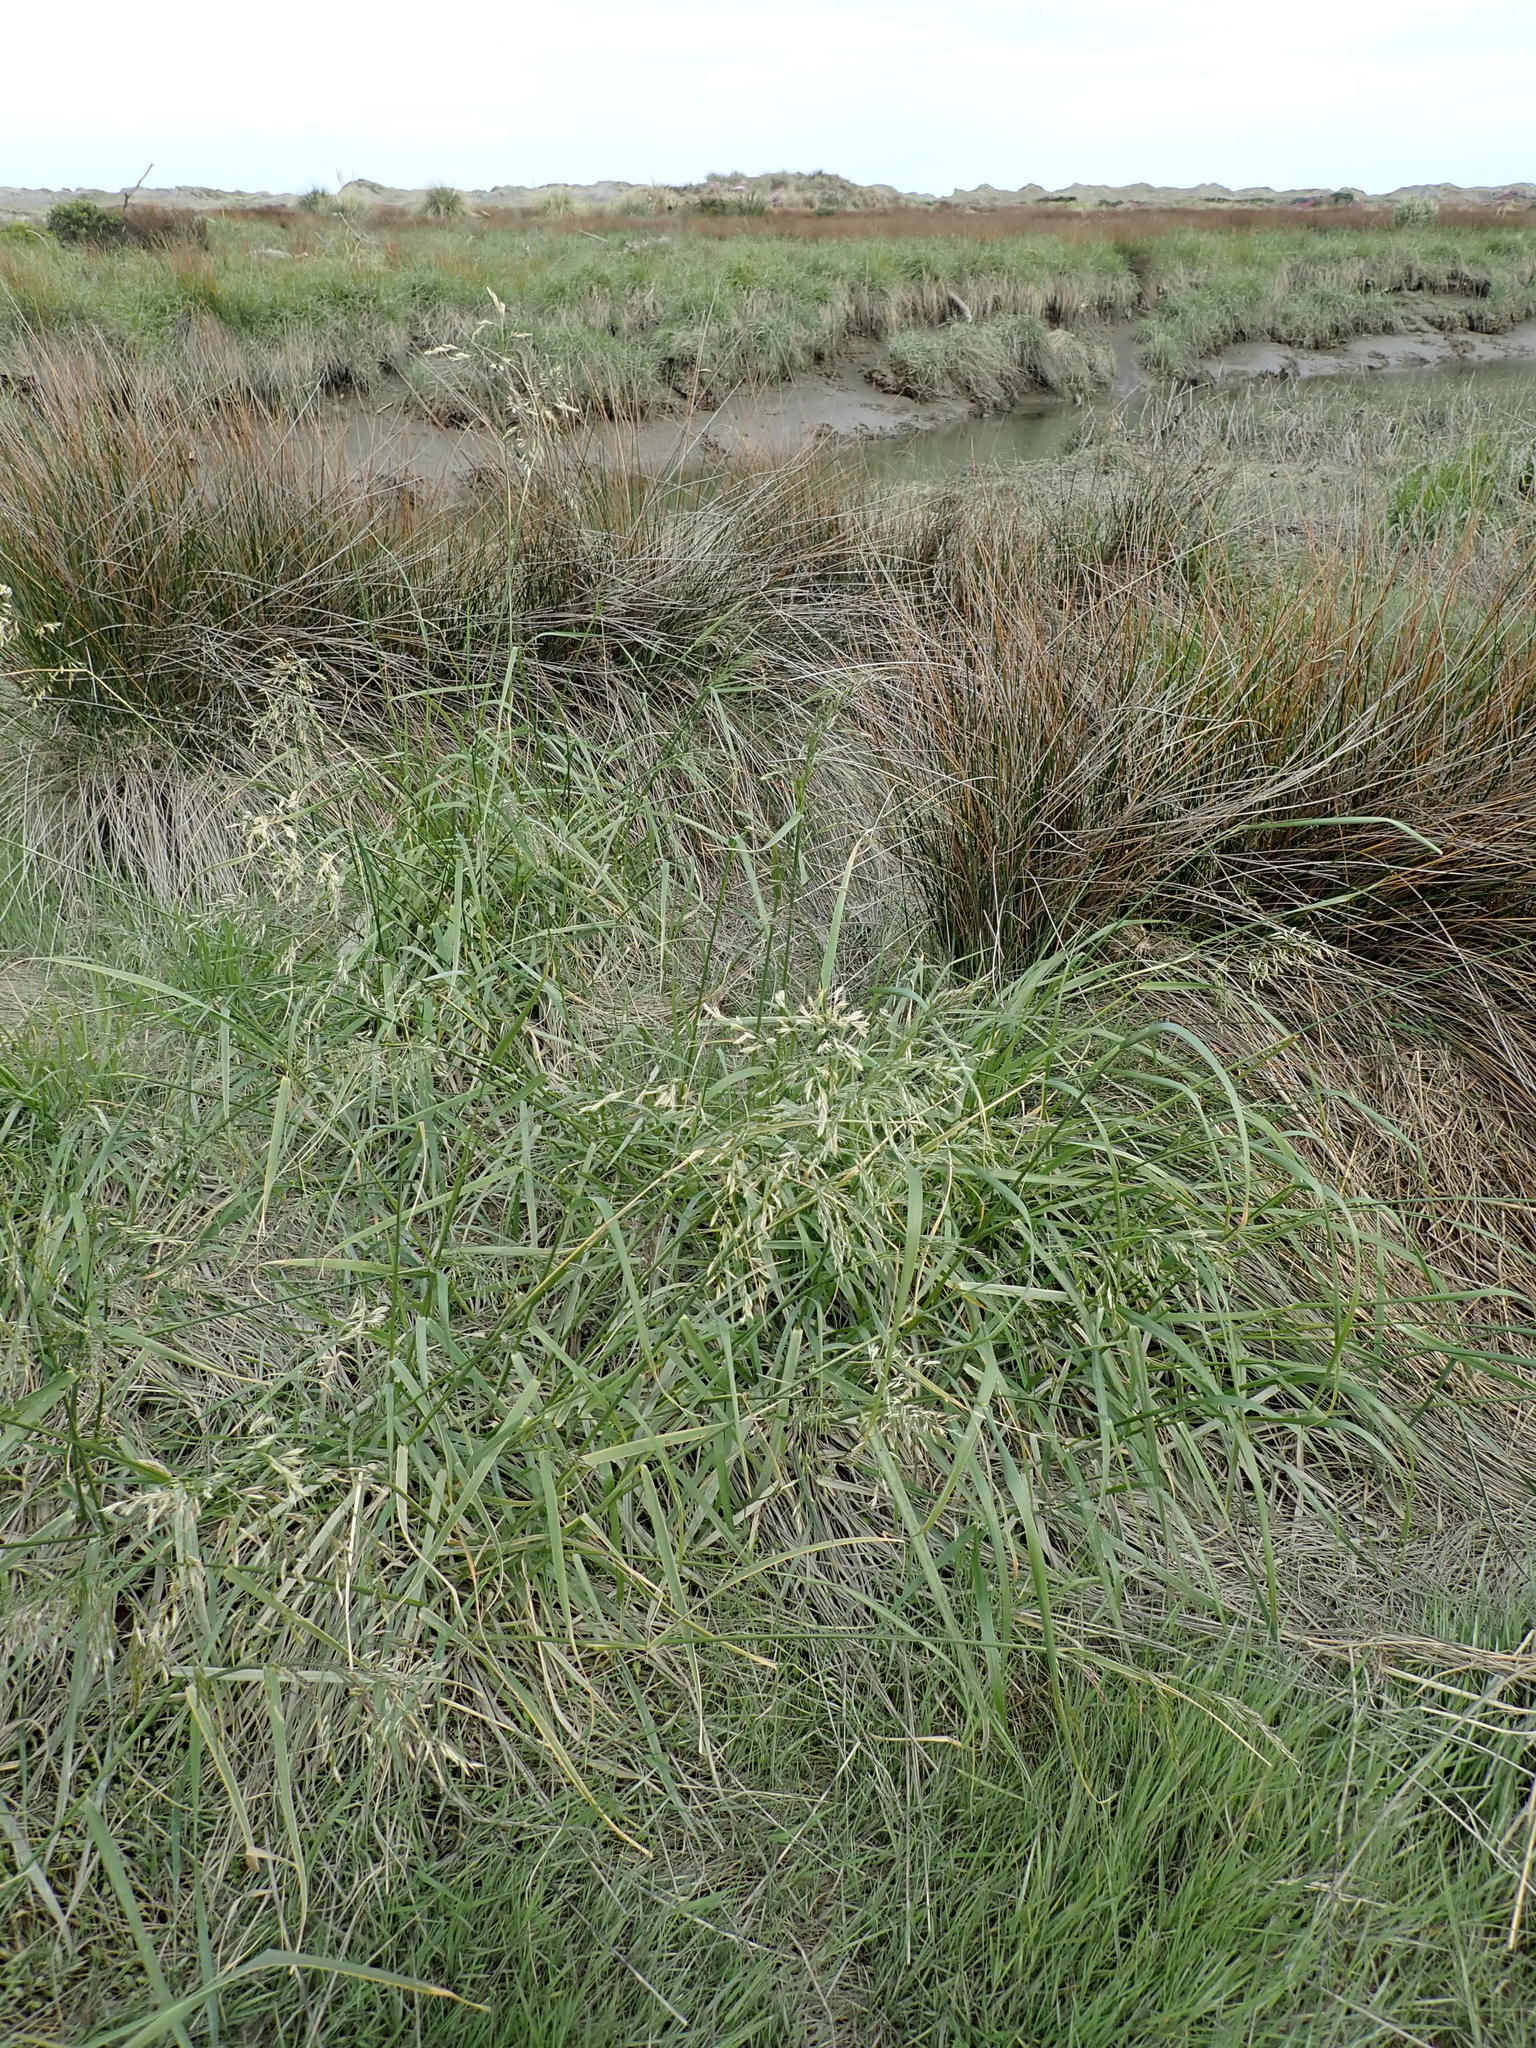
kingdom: Plantae
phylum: Tracheophyta
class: Liliopsida
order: Poales
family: Poaceae
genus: Lolium
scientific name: Lolium arundinaceum
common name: Reed fescue
